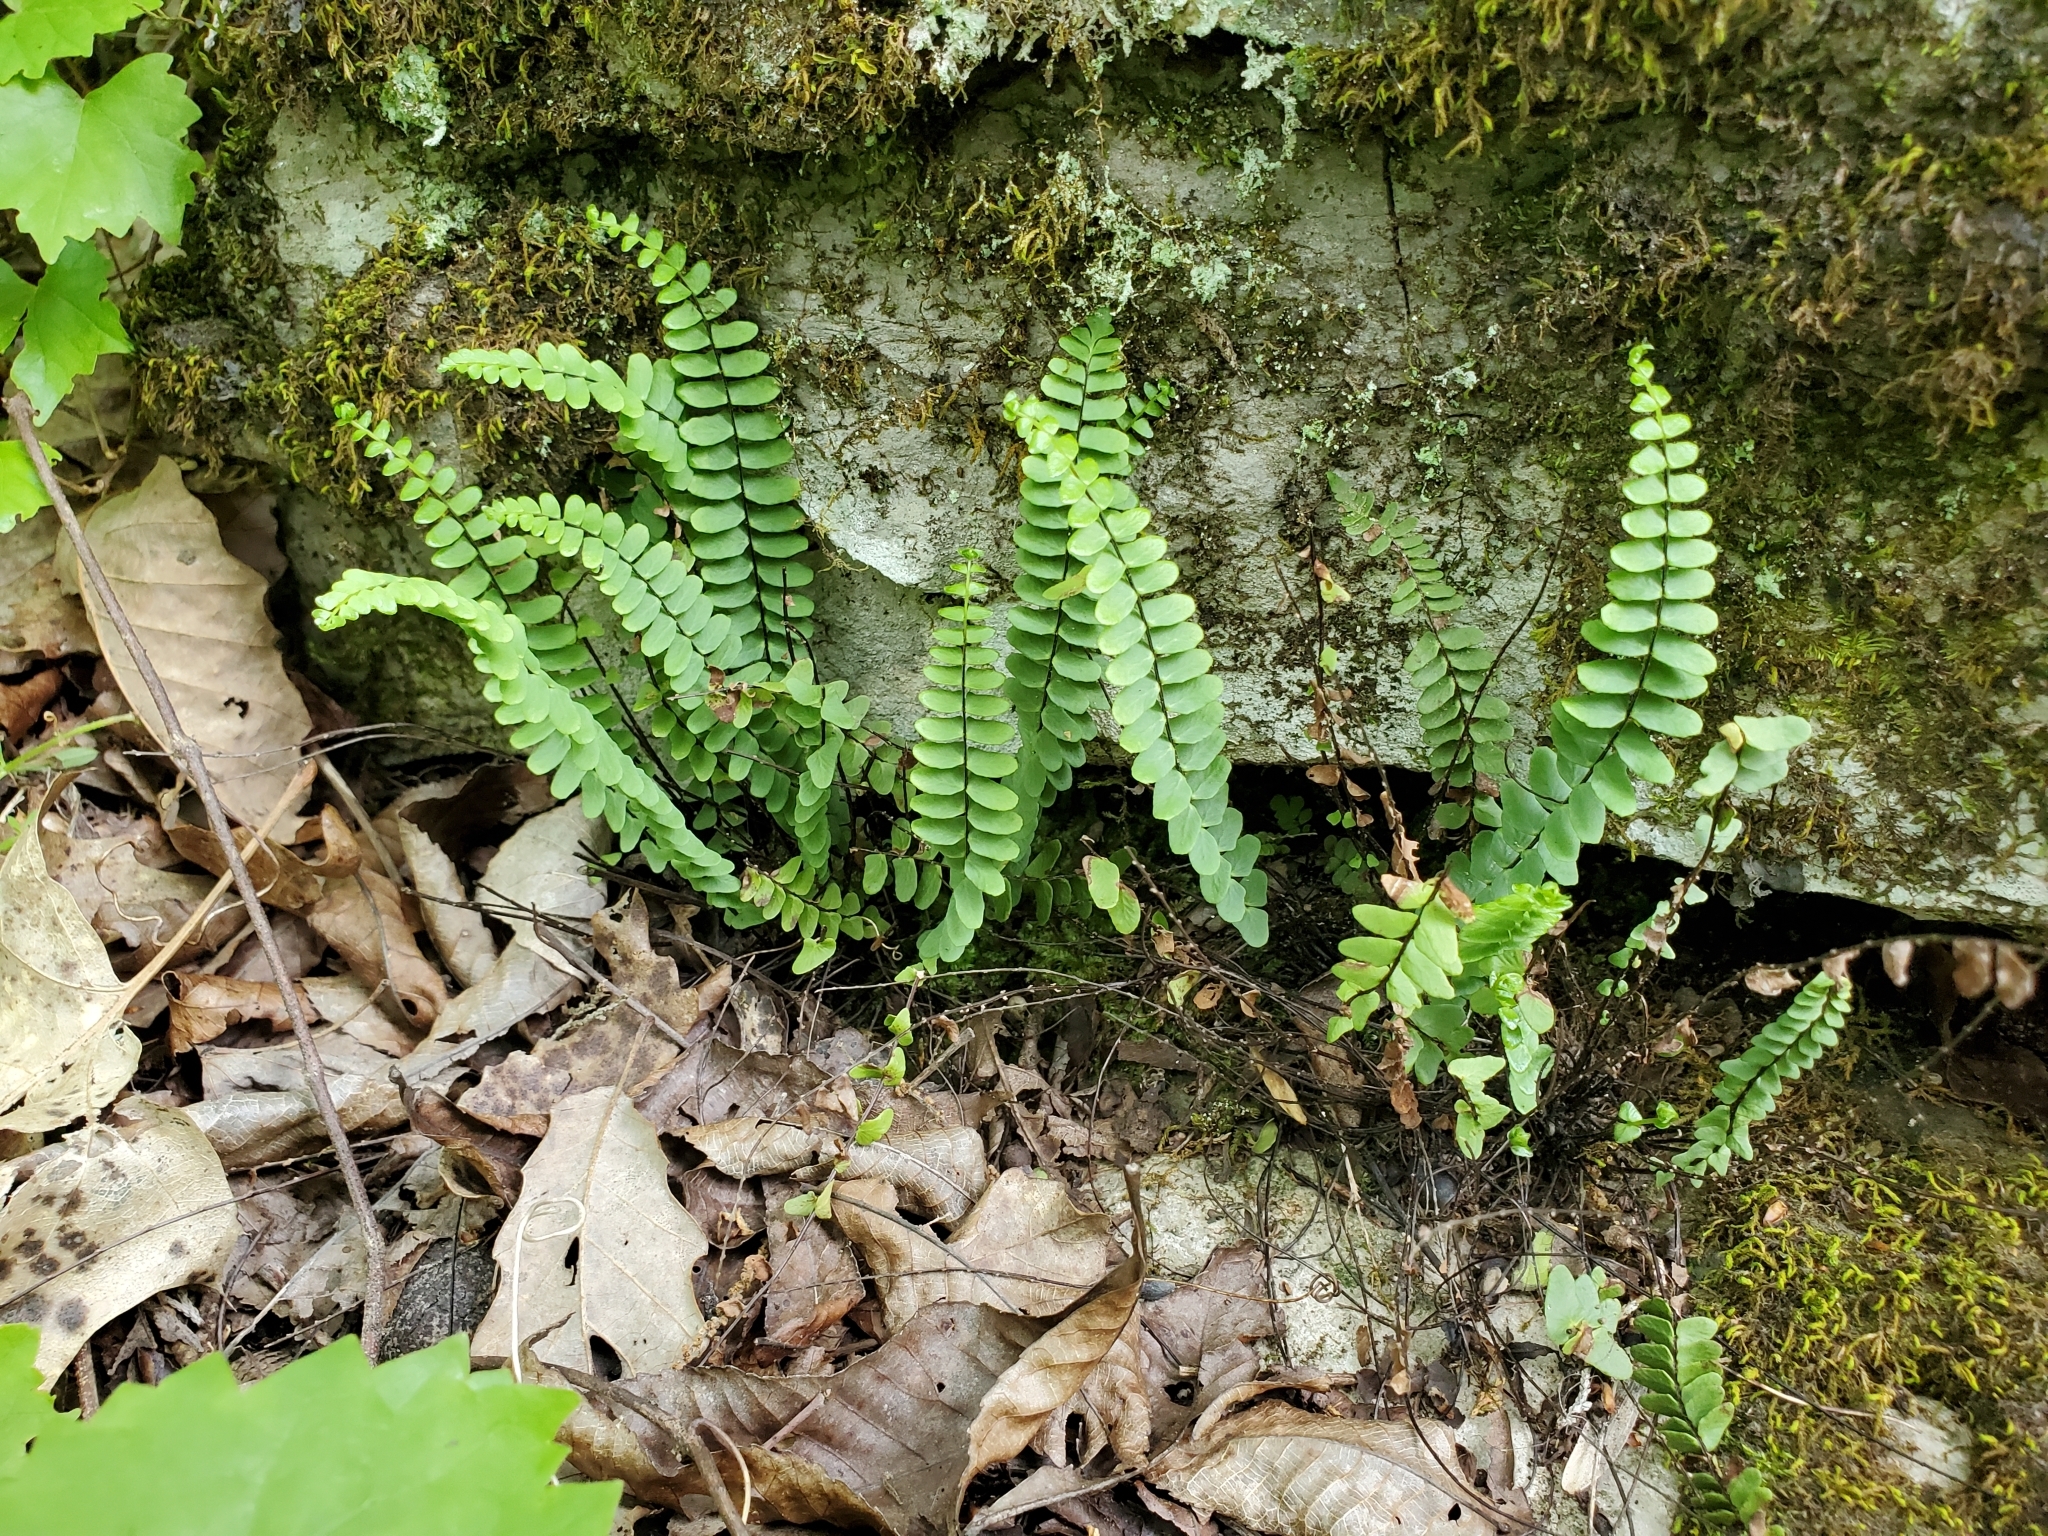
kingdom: Plantae
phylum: Tracheophyta
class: Polypodiopsida
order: Polypodiales
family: Aspleniaceae
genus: Asplenium
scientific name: Asplenium resiliens
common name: Blackstem spleenwort
